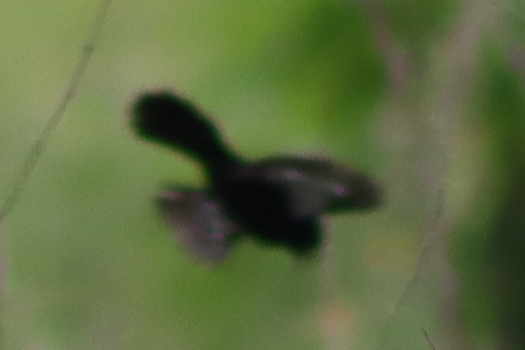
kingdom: Animalia
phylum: Chordata
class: Aves
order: Passeriformes
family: Thraupidae
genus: Volatinia
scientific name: Volatinia jacarina
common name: Blue-black grassquit
